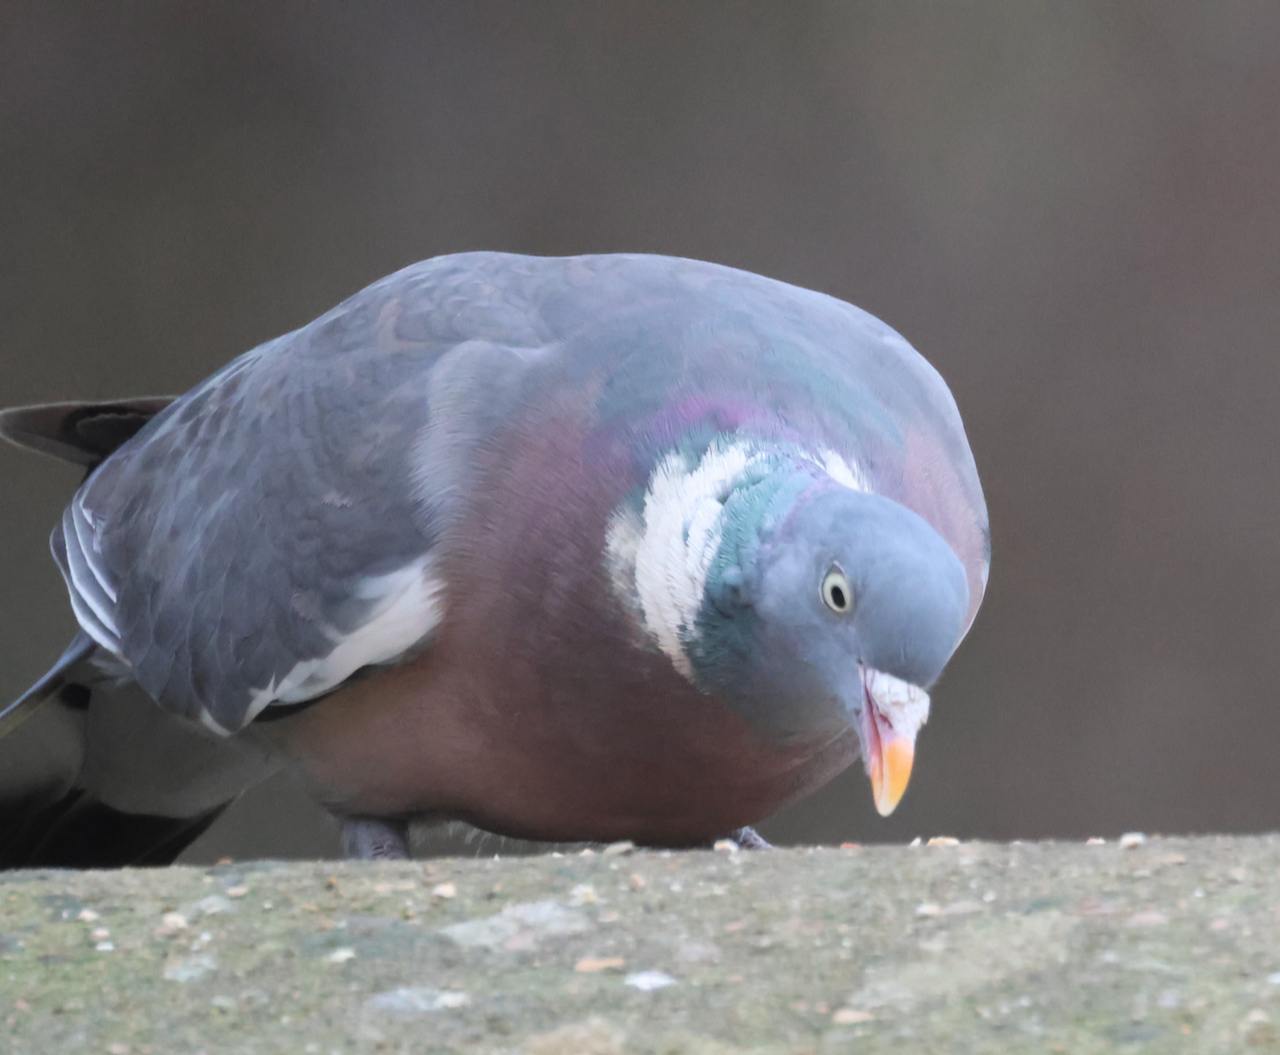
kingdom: Animalia
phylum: Chordata
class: Aves
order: Columbiformes
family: Columbidae
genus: Columba
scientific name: Columba palumbus
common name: Common wood pigeon
